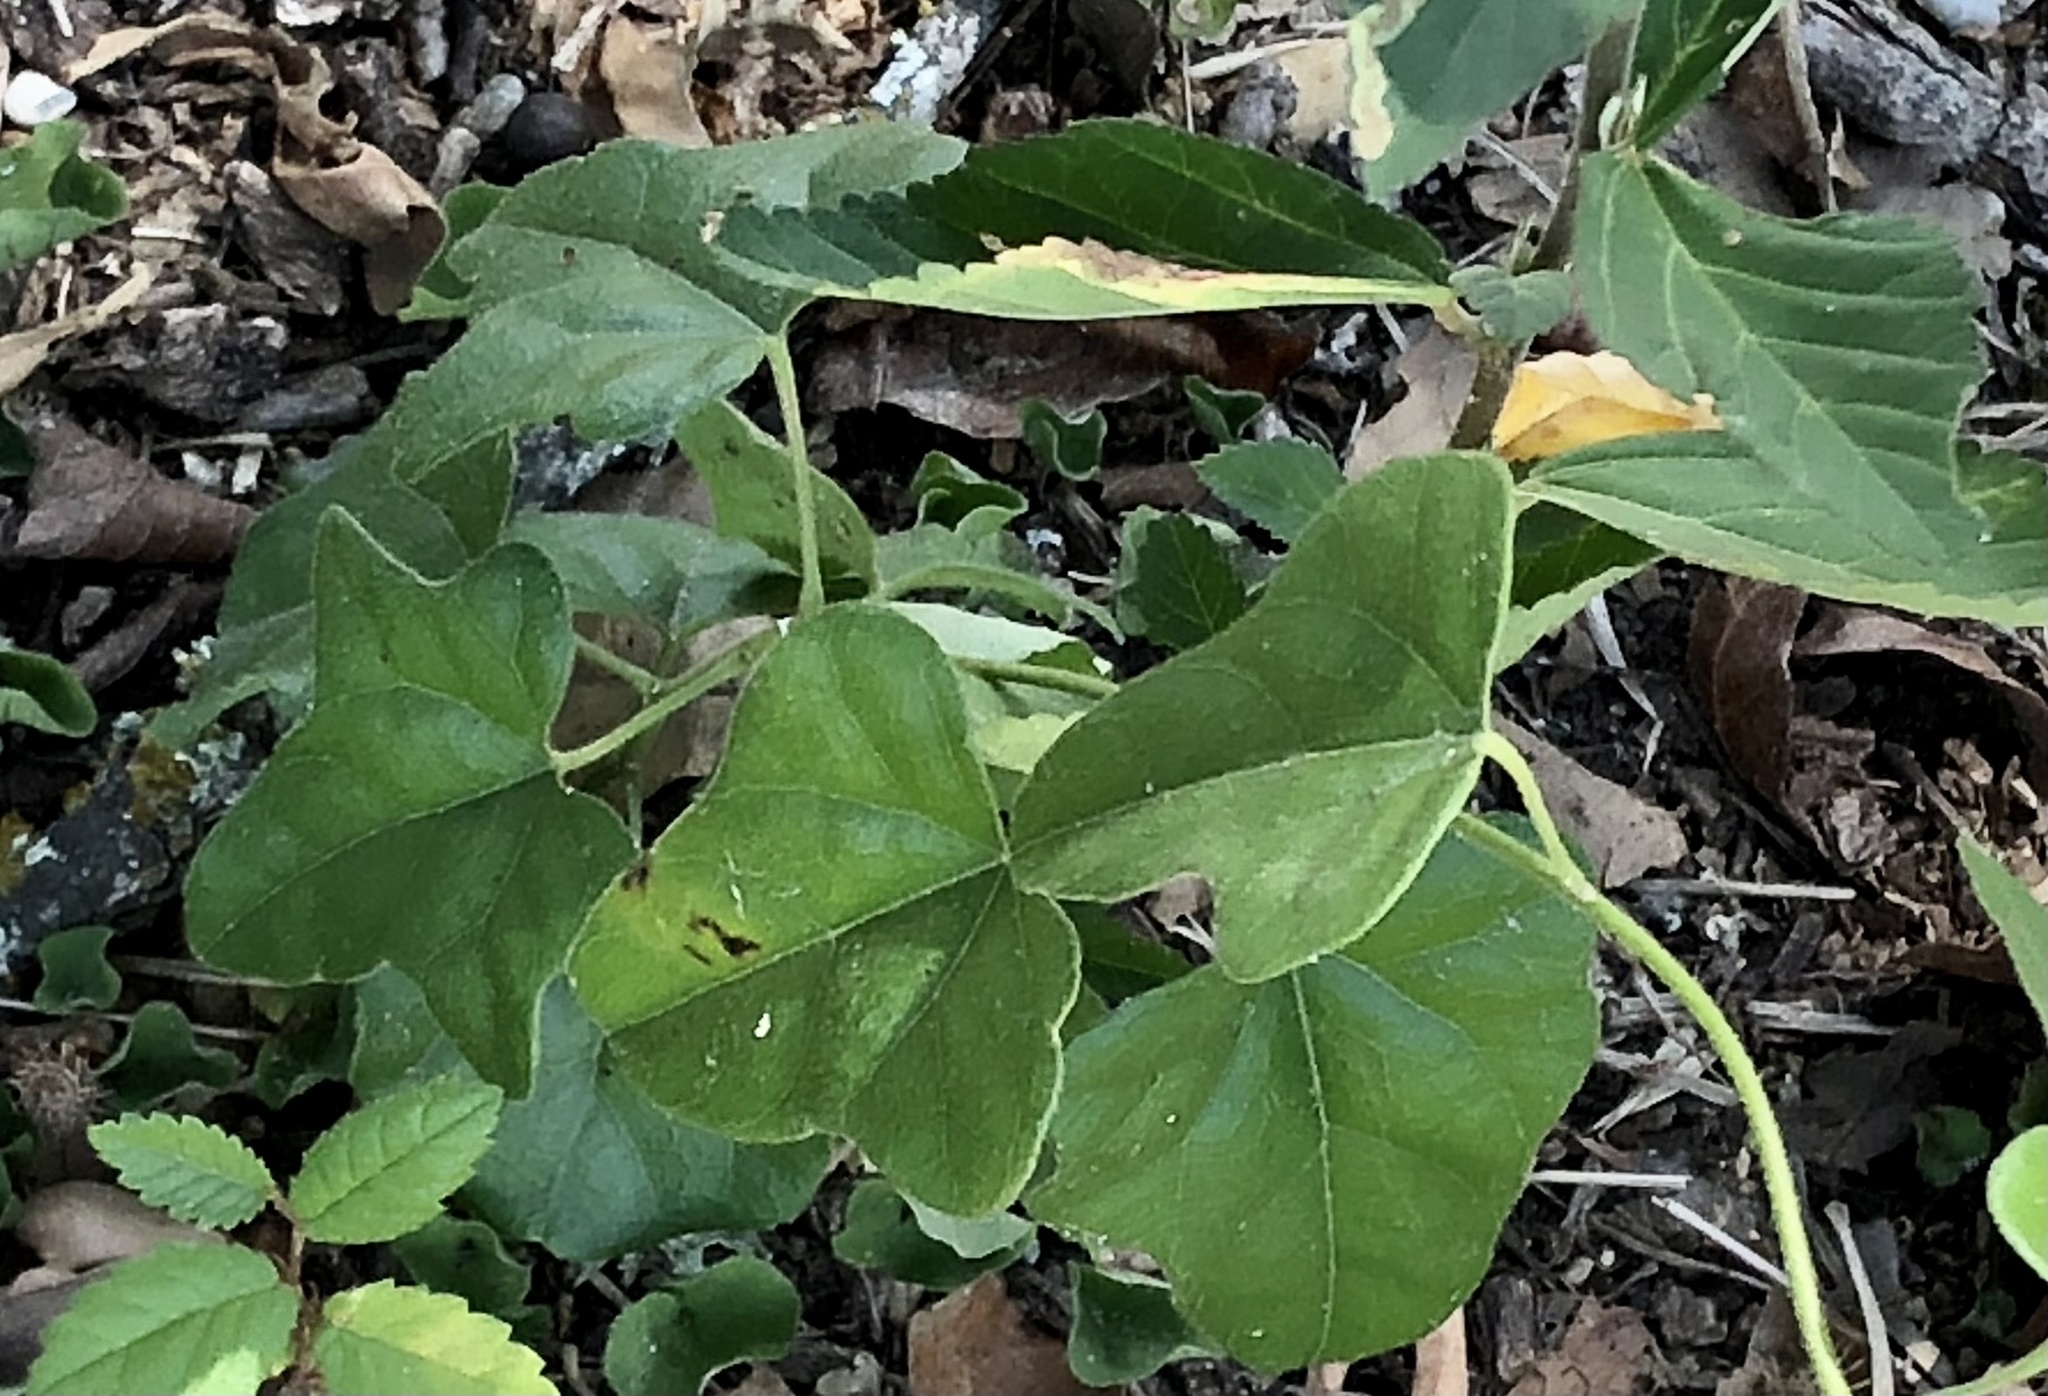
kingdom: Plantae
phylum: Tracheophyta
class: Magnoliopsida
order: Ranunculales
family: Menispermaceae
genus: Cocculus
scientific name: Cocculus carolinus
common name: Carolina moonseed
